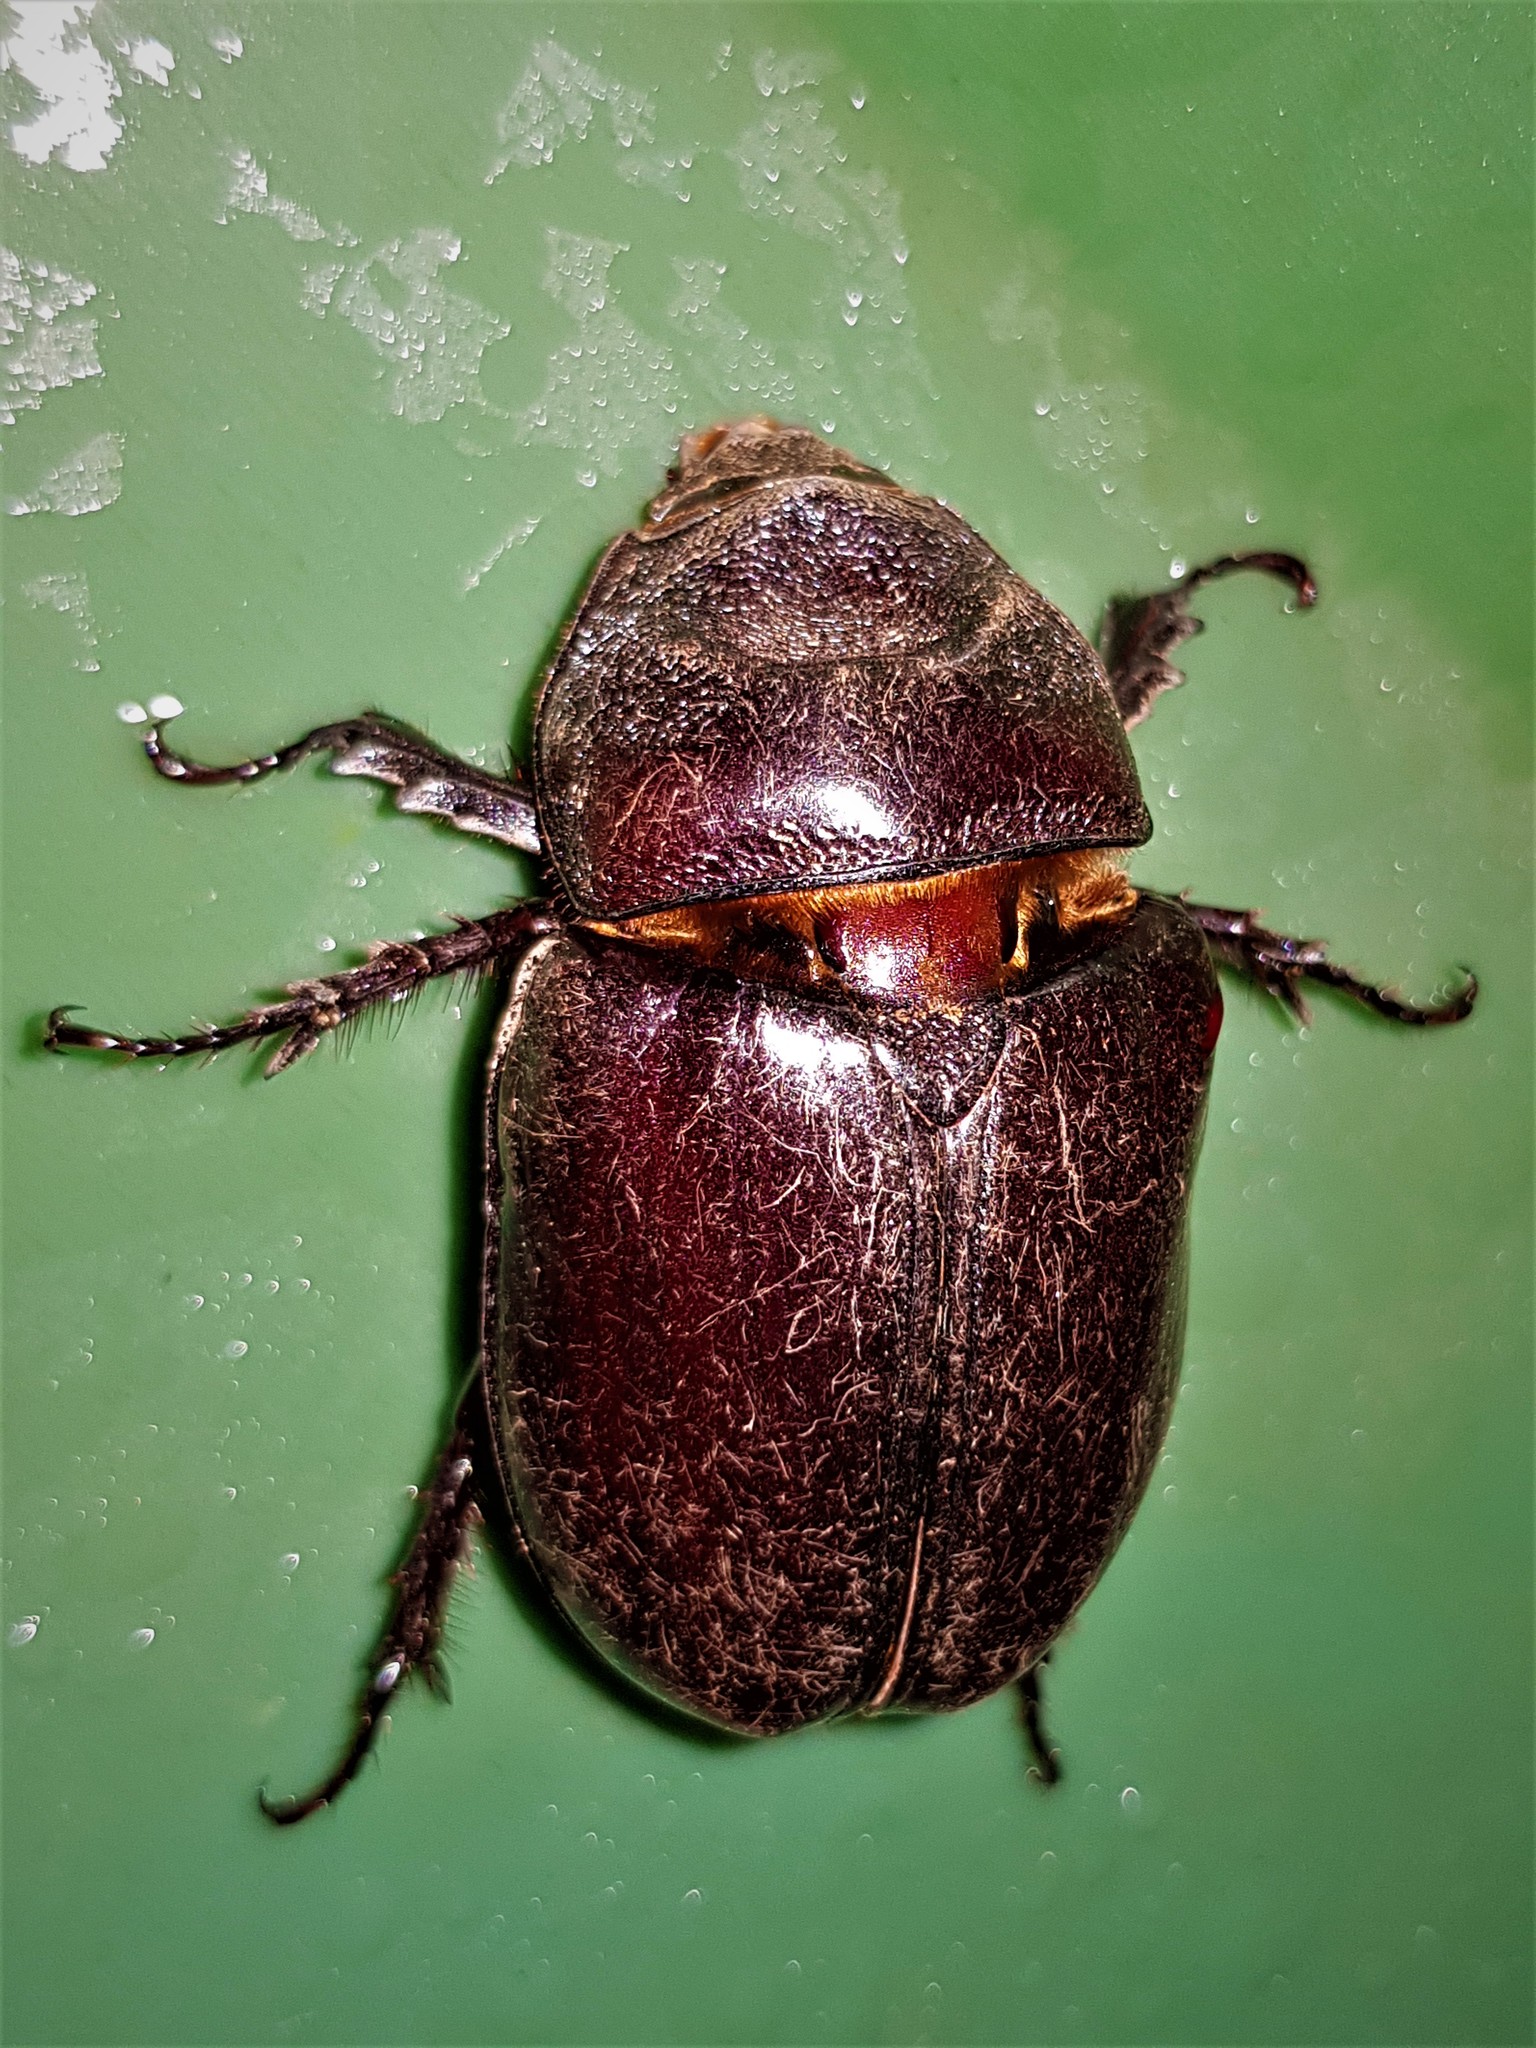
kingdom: Animalia
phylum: Arthropoda
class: Insecta
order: Coleoptera
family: Scarabaeidae
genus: Strategus
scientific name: Strategus aloeus
